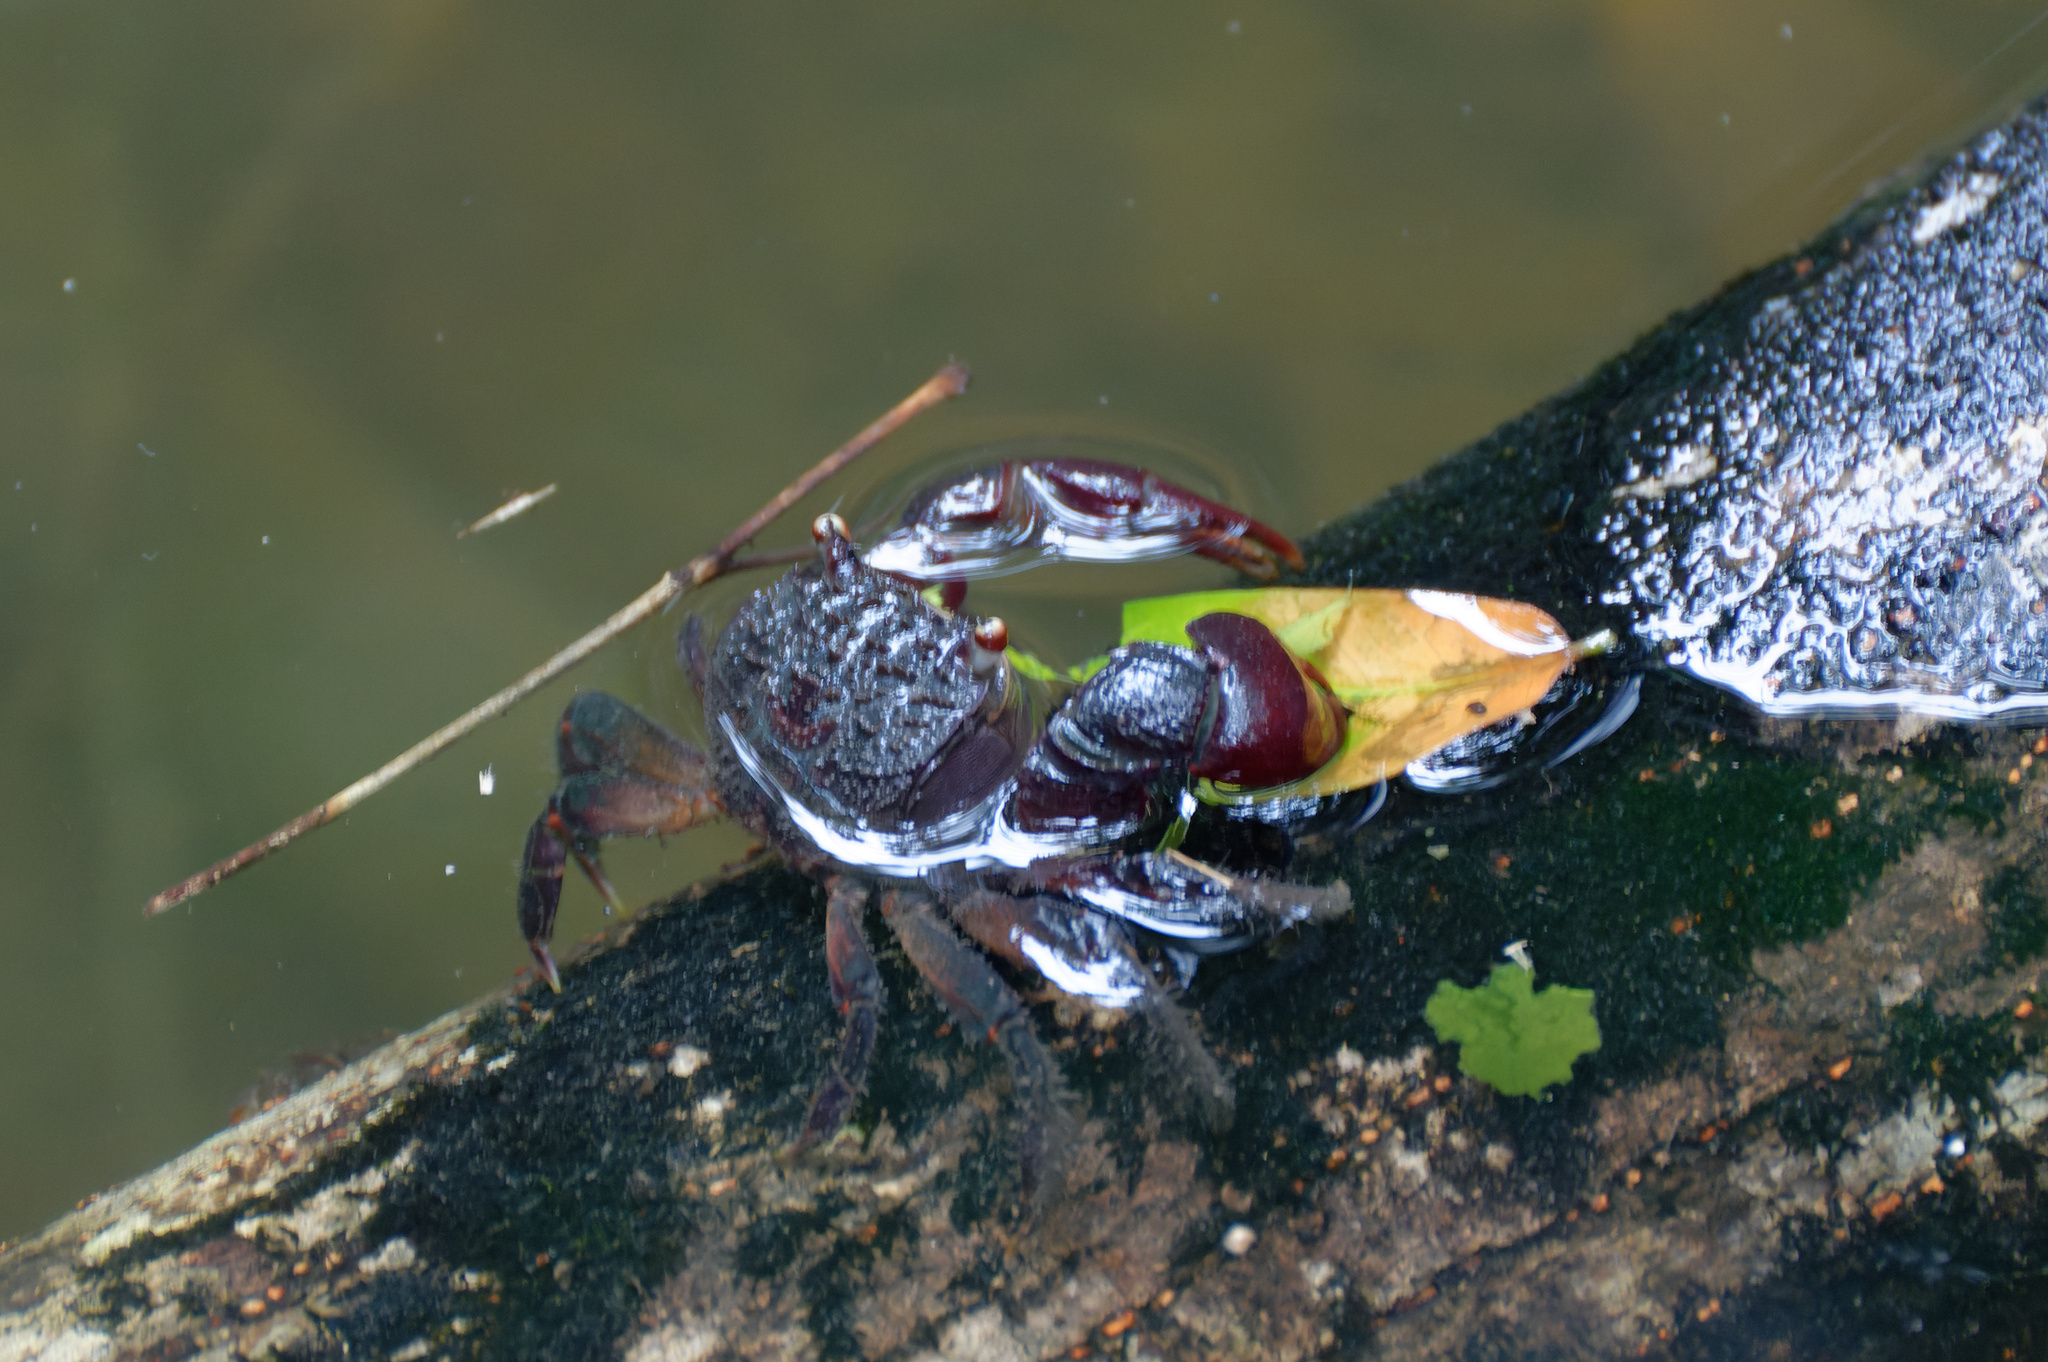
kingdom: Animalia
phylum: Arthropoda
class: Malacostraca
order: Decapoda
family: Sesarmidae
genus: Neosarmatium
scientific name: Neosarmatium fourmanoiri
